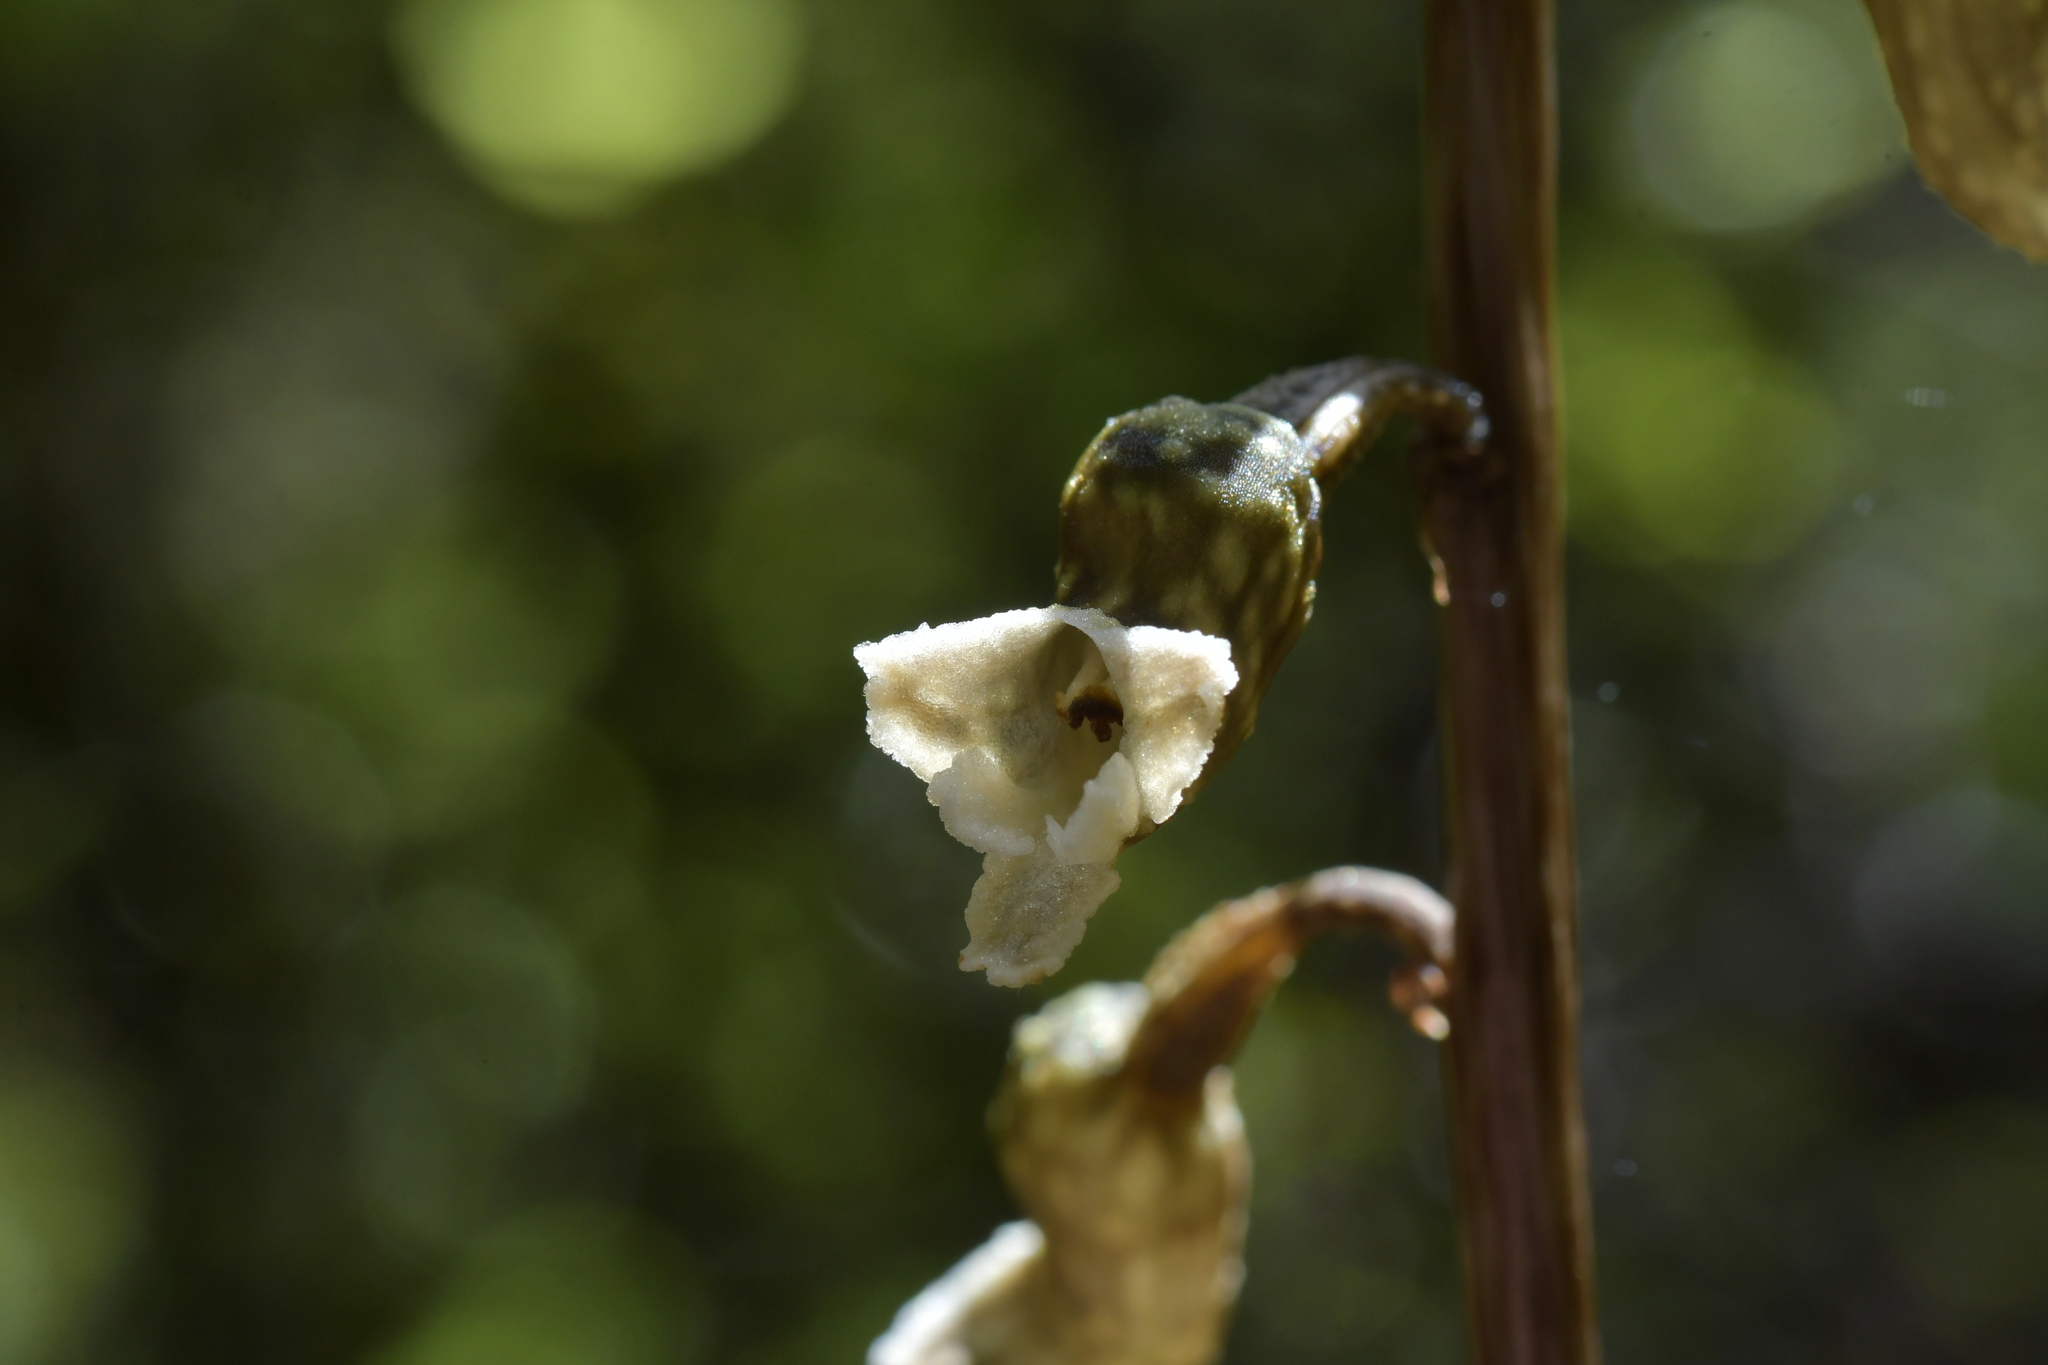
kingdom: Plantae
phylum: Tracheophyta
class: Liliopsida
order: Asparagales
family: Orchidaceae
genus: Gastrodia
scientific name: Gastrodia cunninghamii
